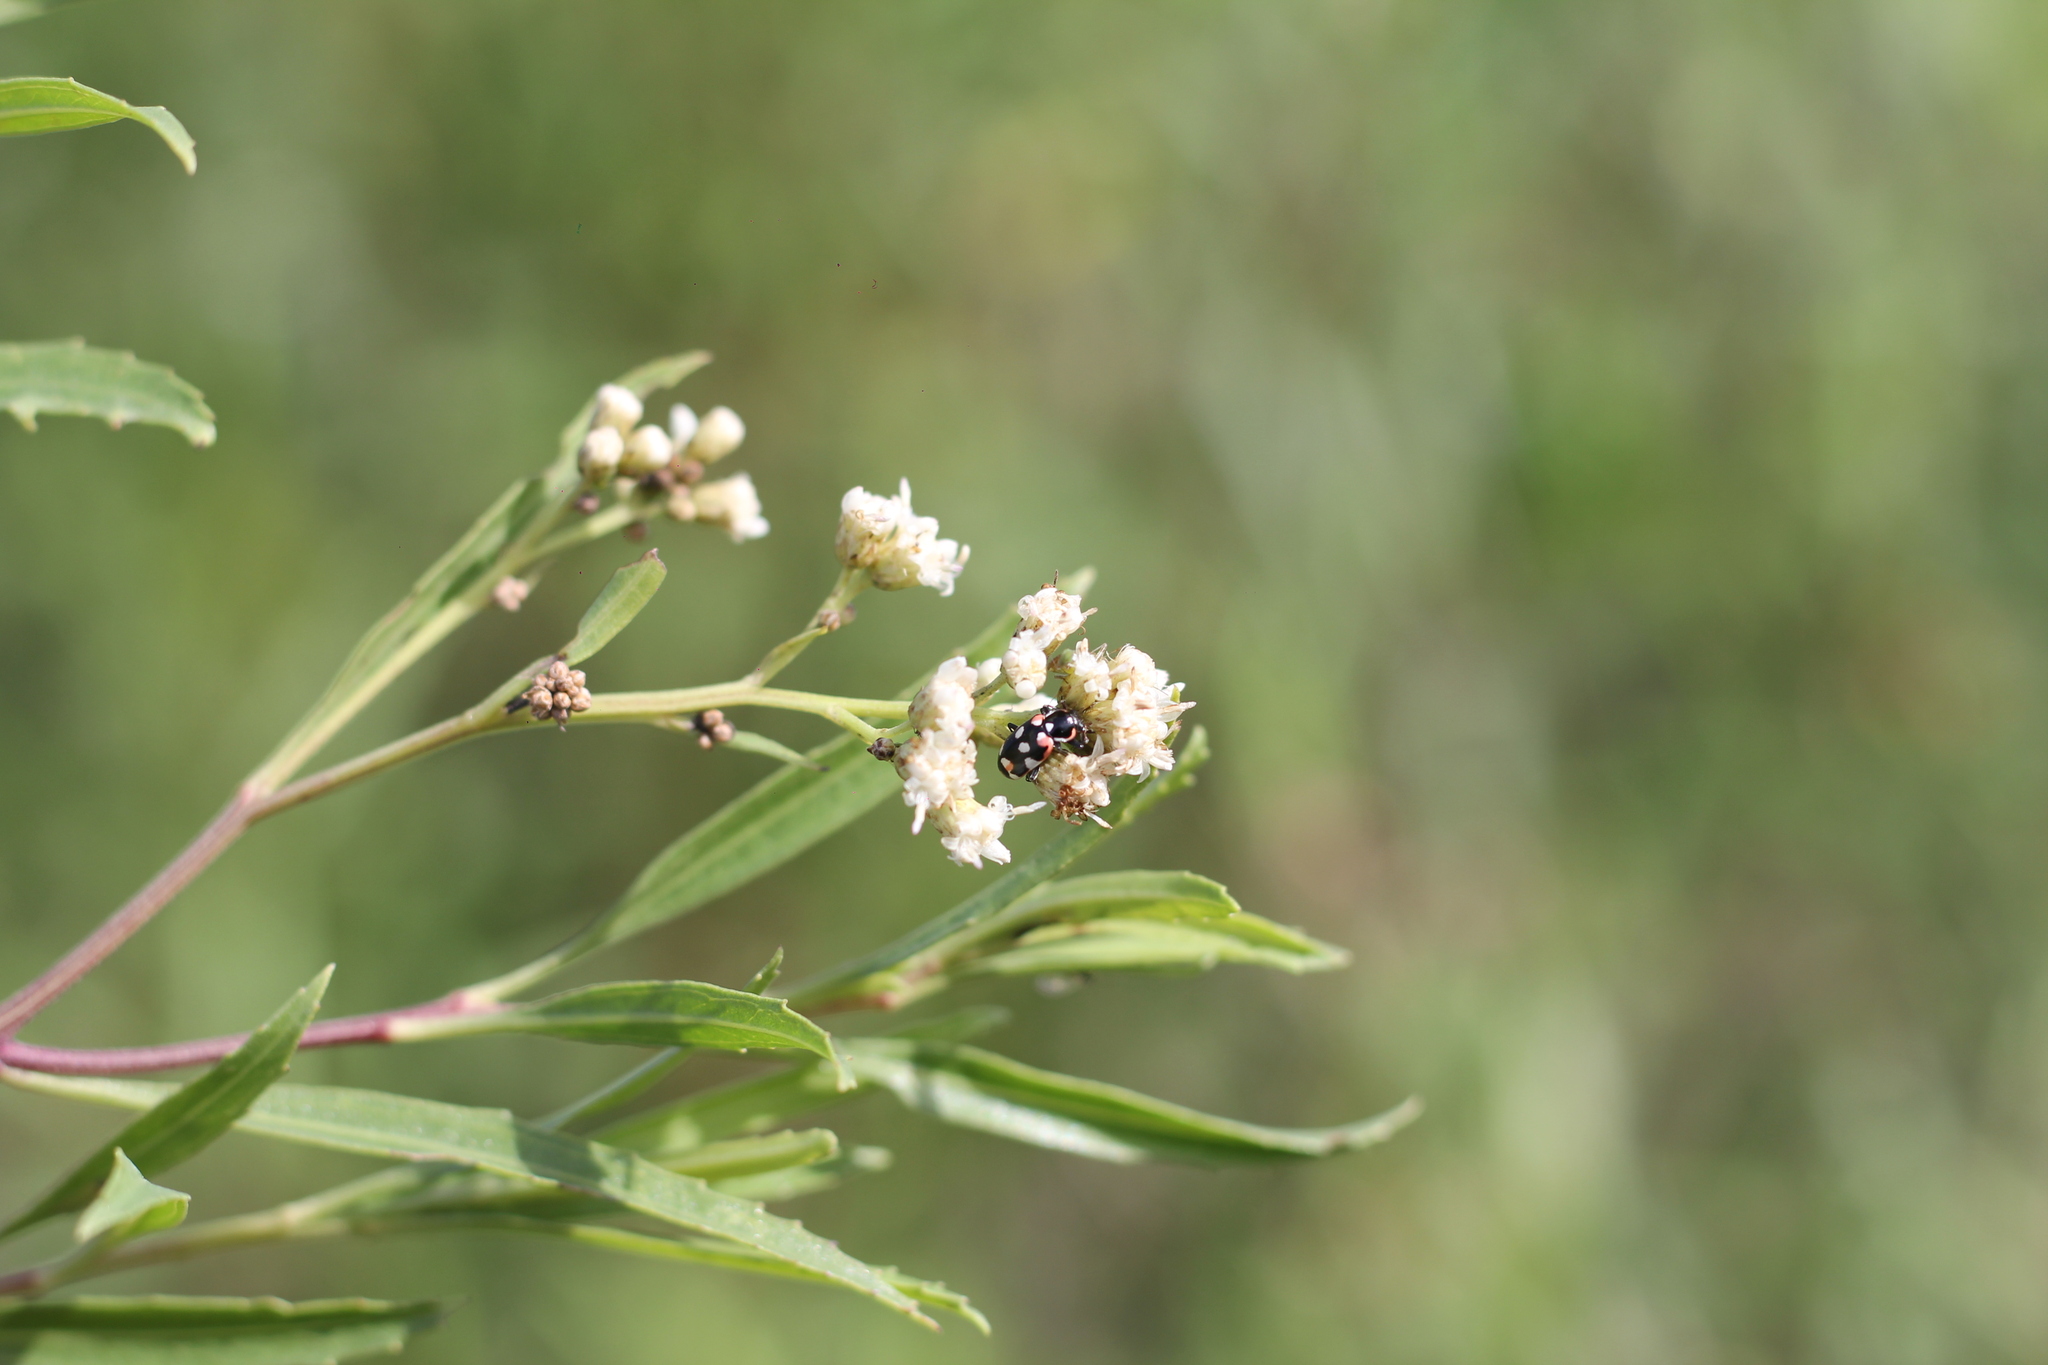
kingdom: Animalia
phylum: Arthropoda
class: Insecta
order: Coleoptera
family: Coccinellidae
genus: Eriopis
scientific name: Eriopis connexa
